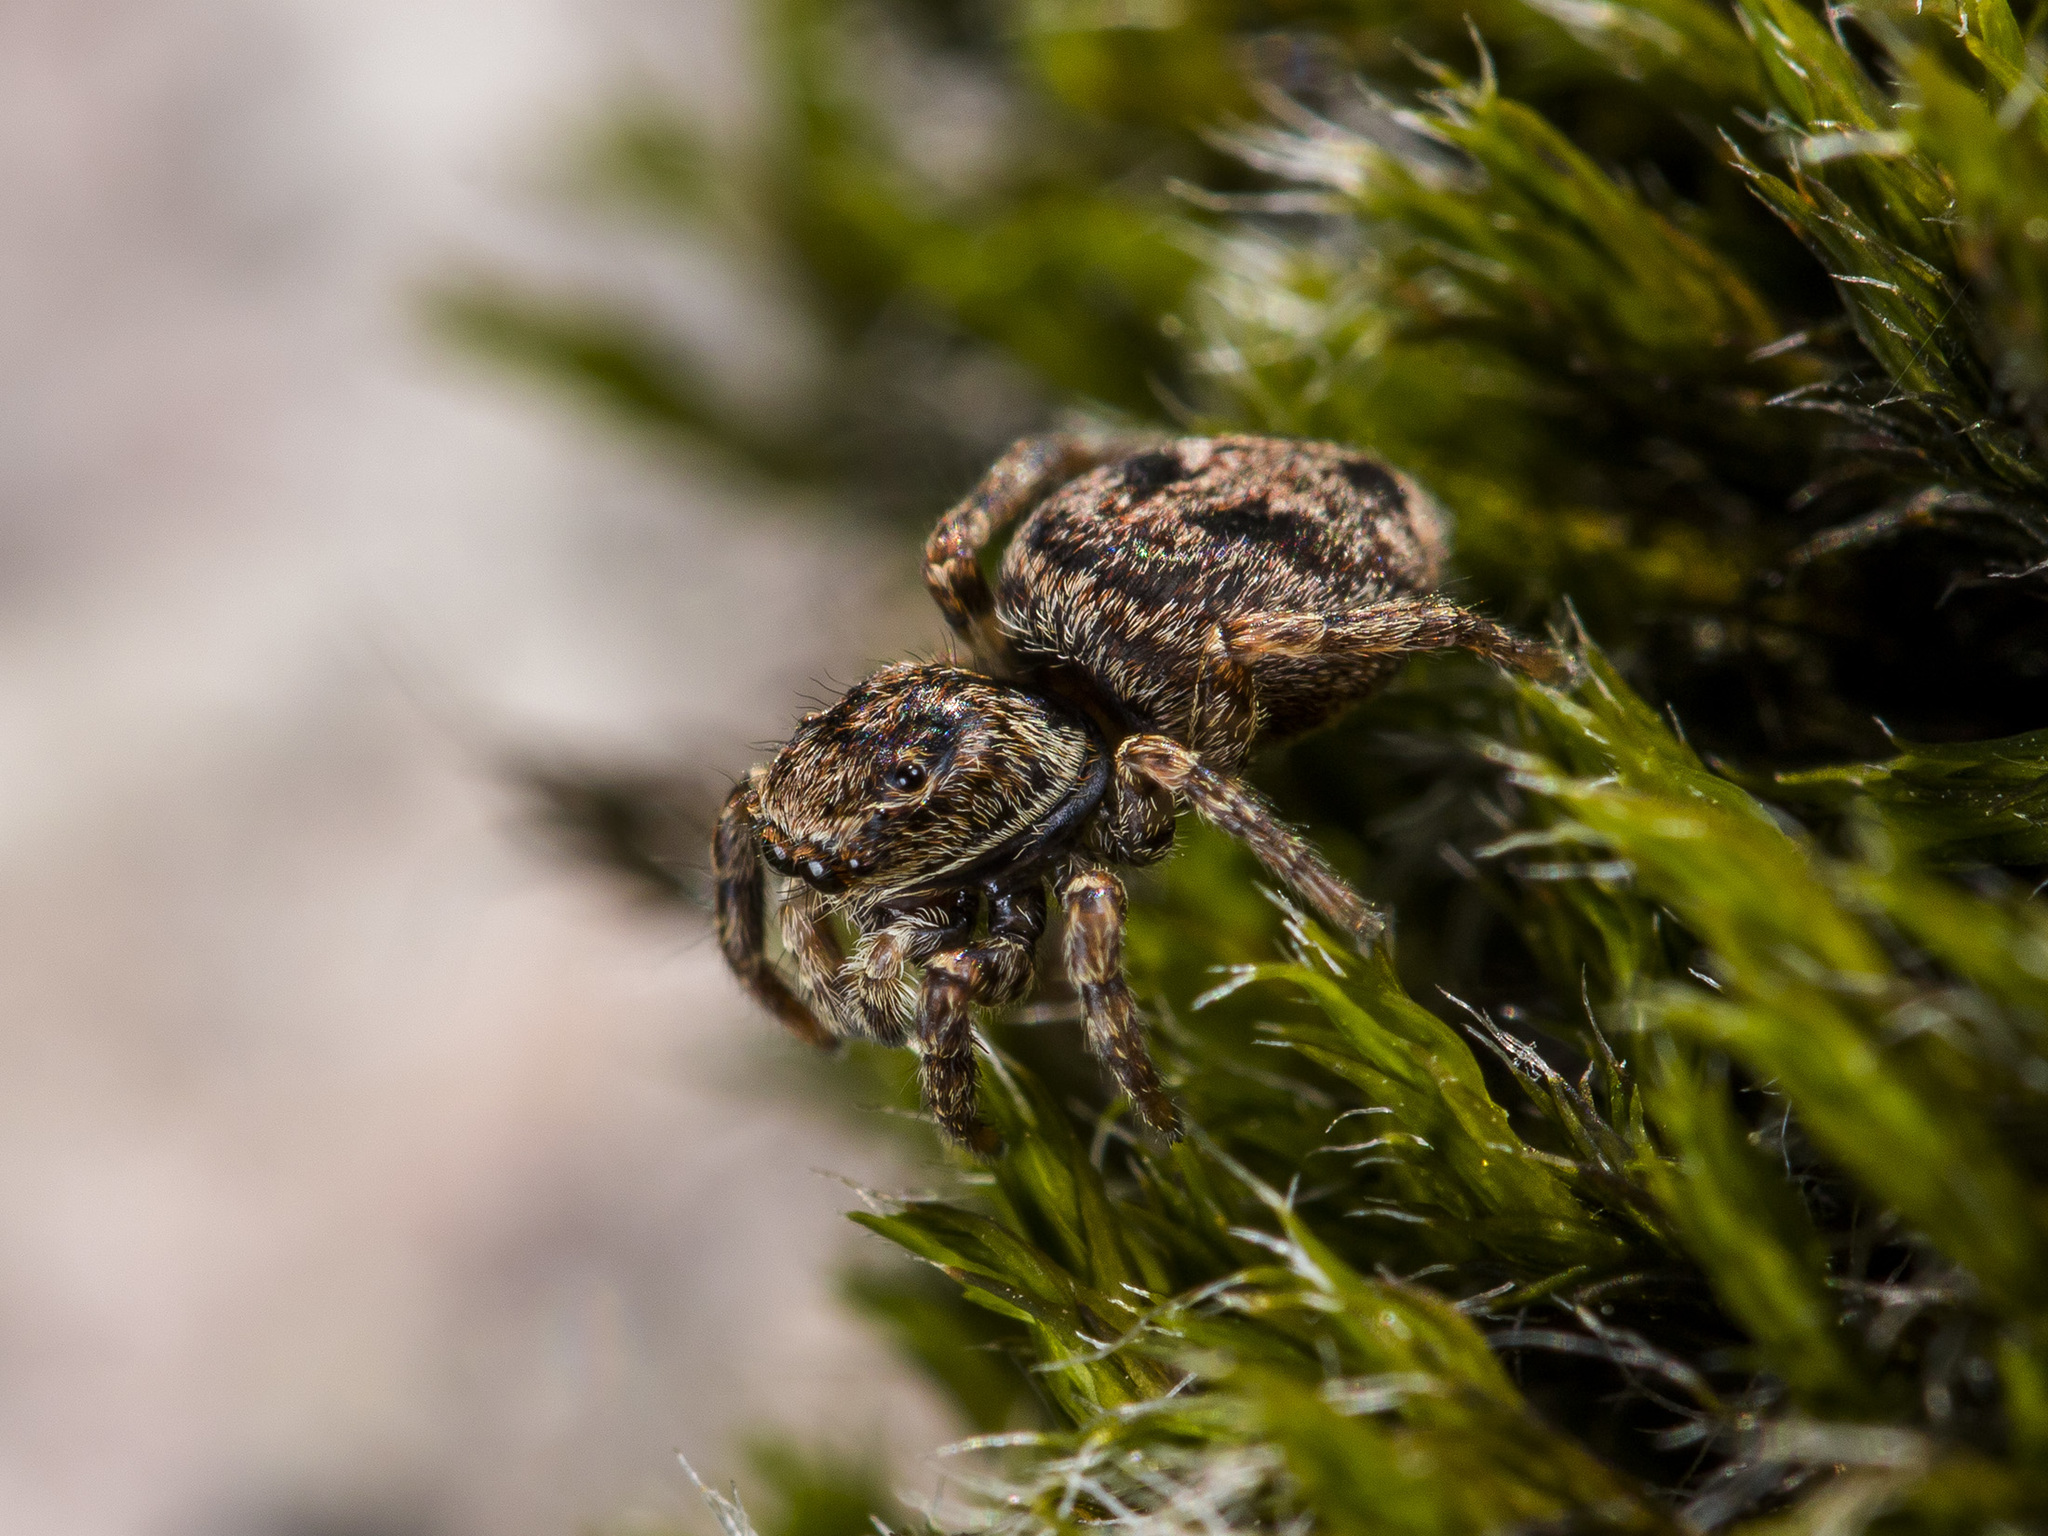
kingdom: Animalia
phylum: Arthropoda
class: Arachnida
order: Araneae
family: Salticidae
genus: Attulus
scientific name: Attulus monstrabilis
